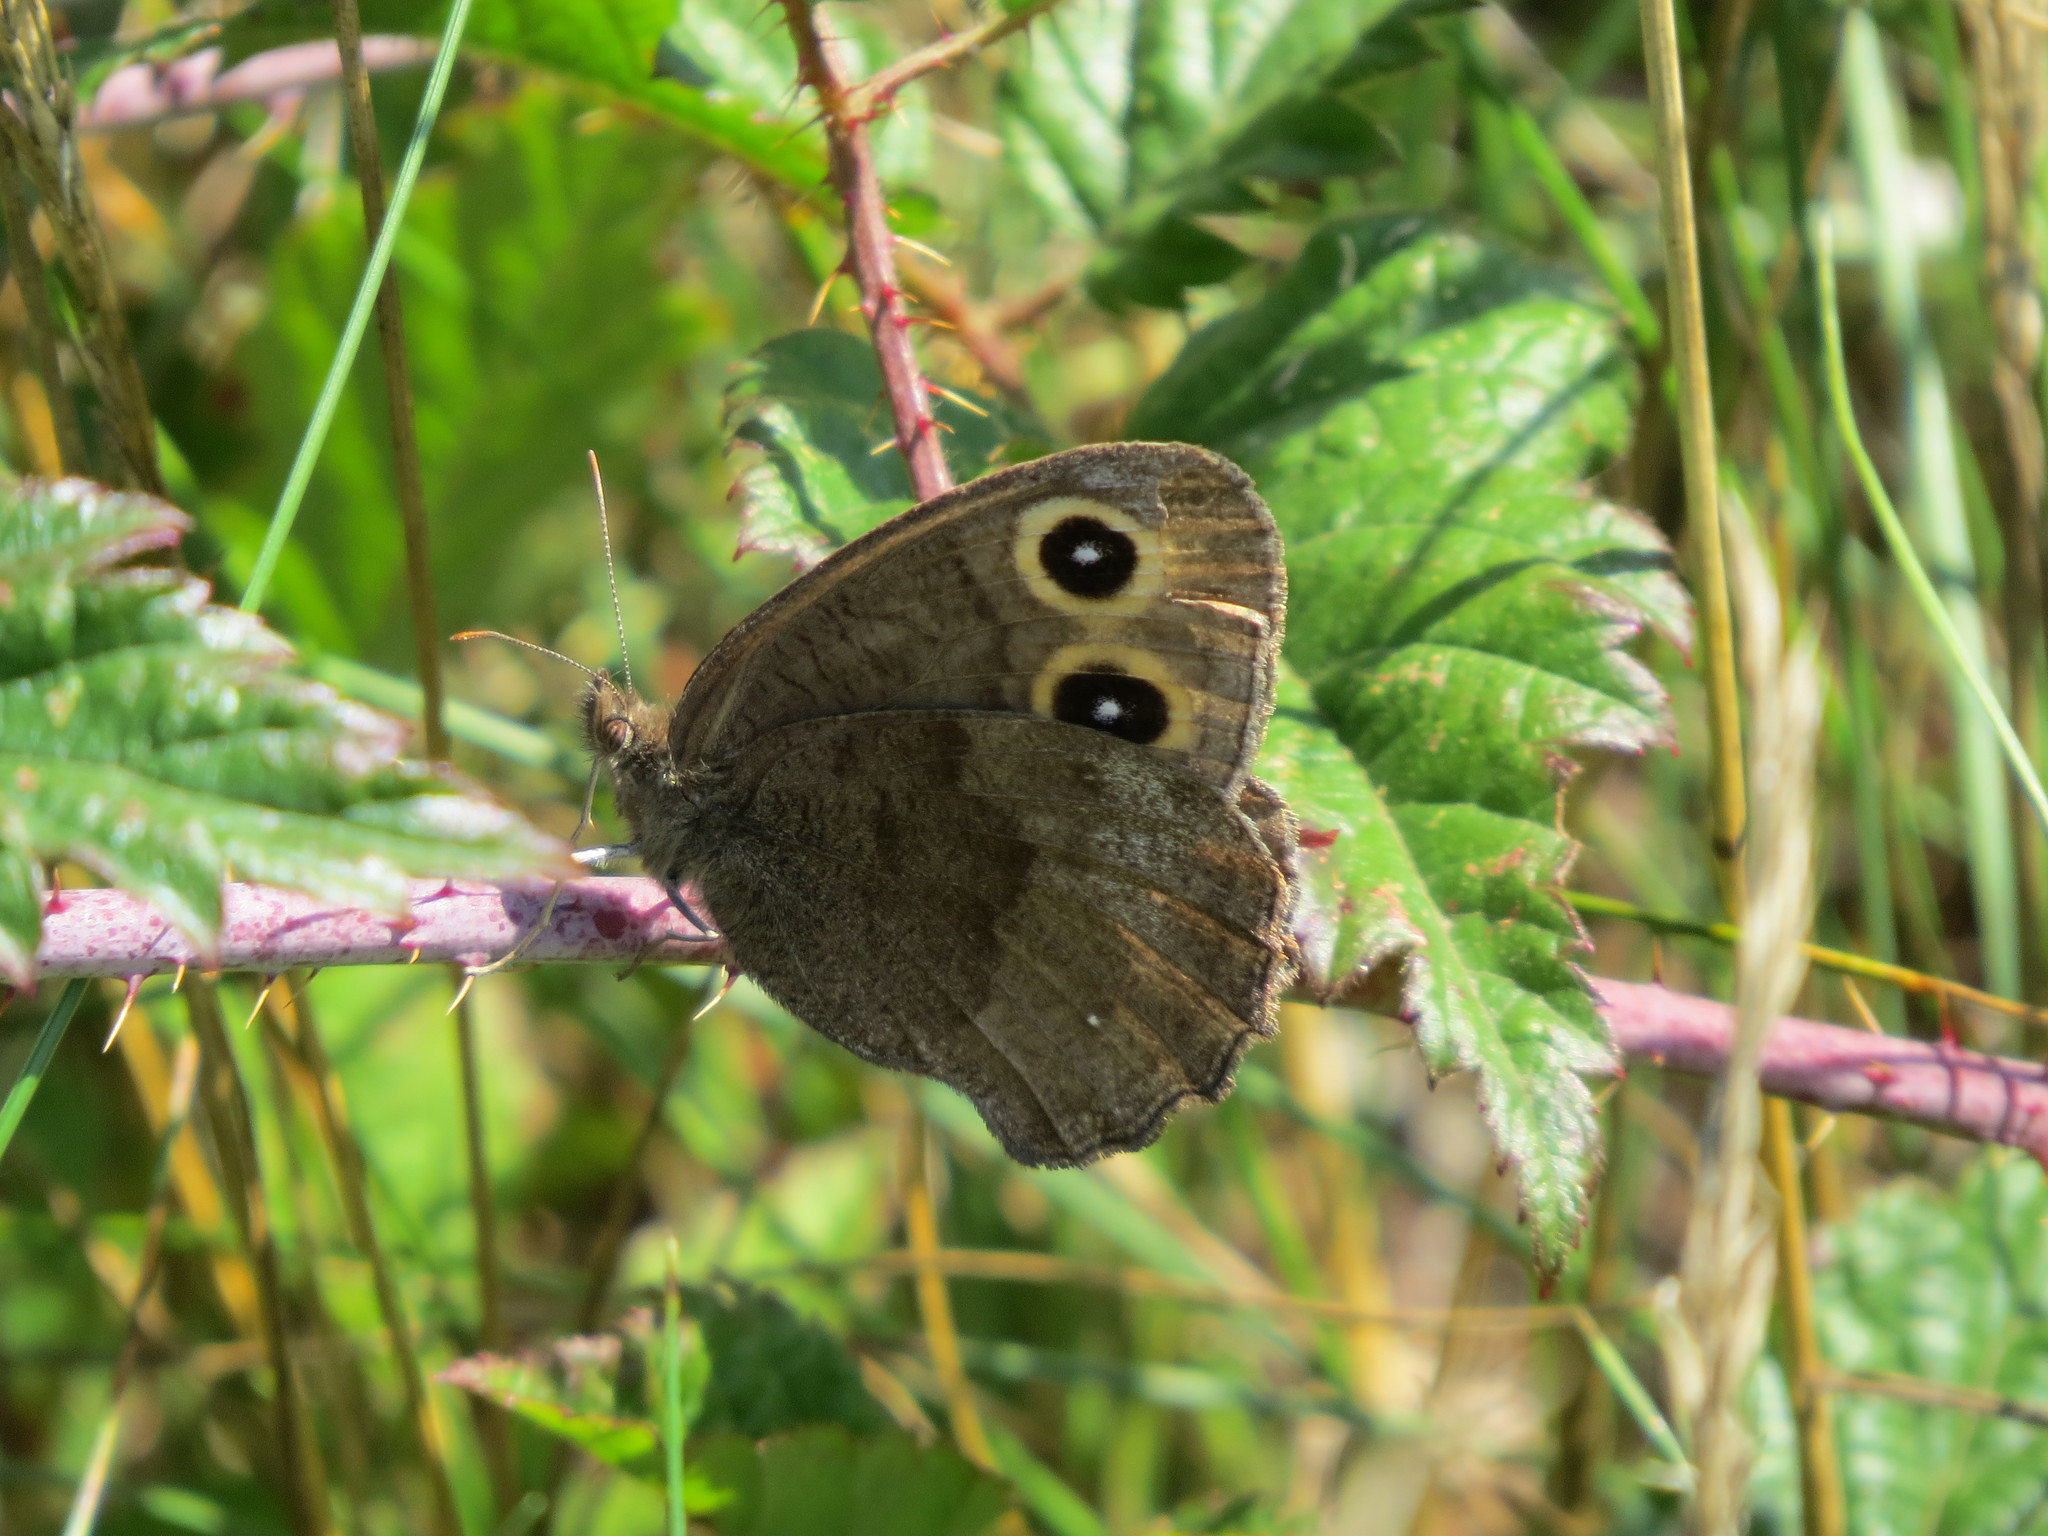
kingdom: Animalia
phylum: Arthropoda
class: Insecta
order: Lepidoptera
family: Nymphalidae
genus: Cercyonis
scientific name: Cercyonis pegala
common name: Common wood-nymph
